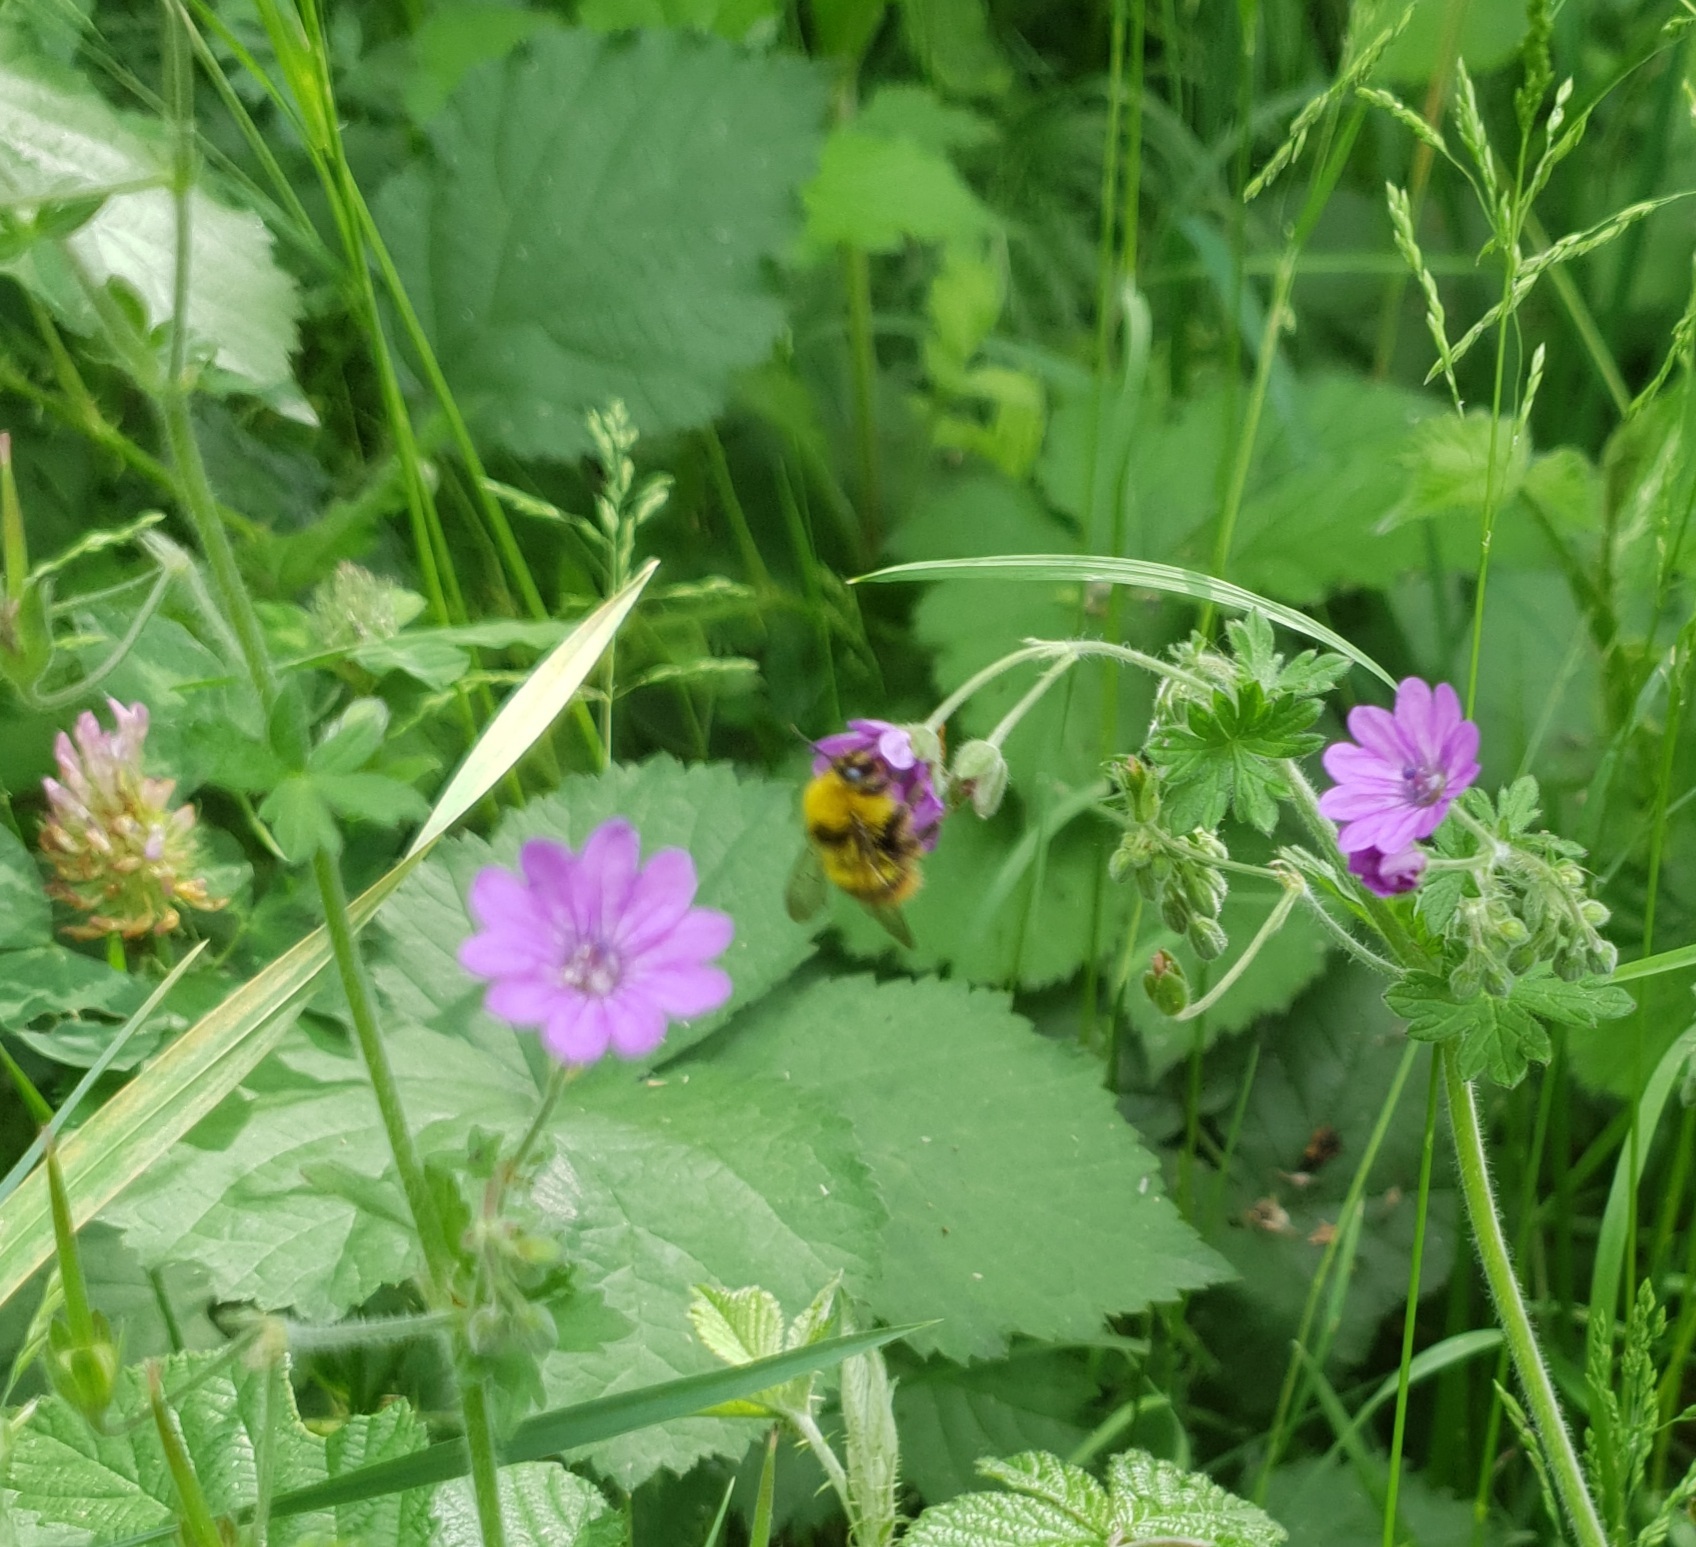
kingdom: Animalia
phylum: Arthropoda
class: Insecta
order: Hymenoptera
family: Apidae
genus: Bombus
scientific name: Bombus pratorum
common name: Early humble-bee
